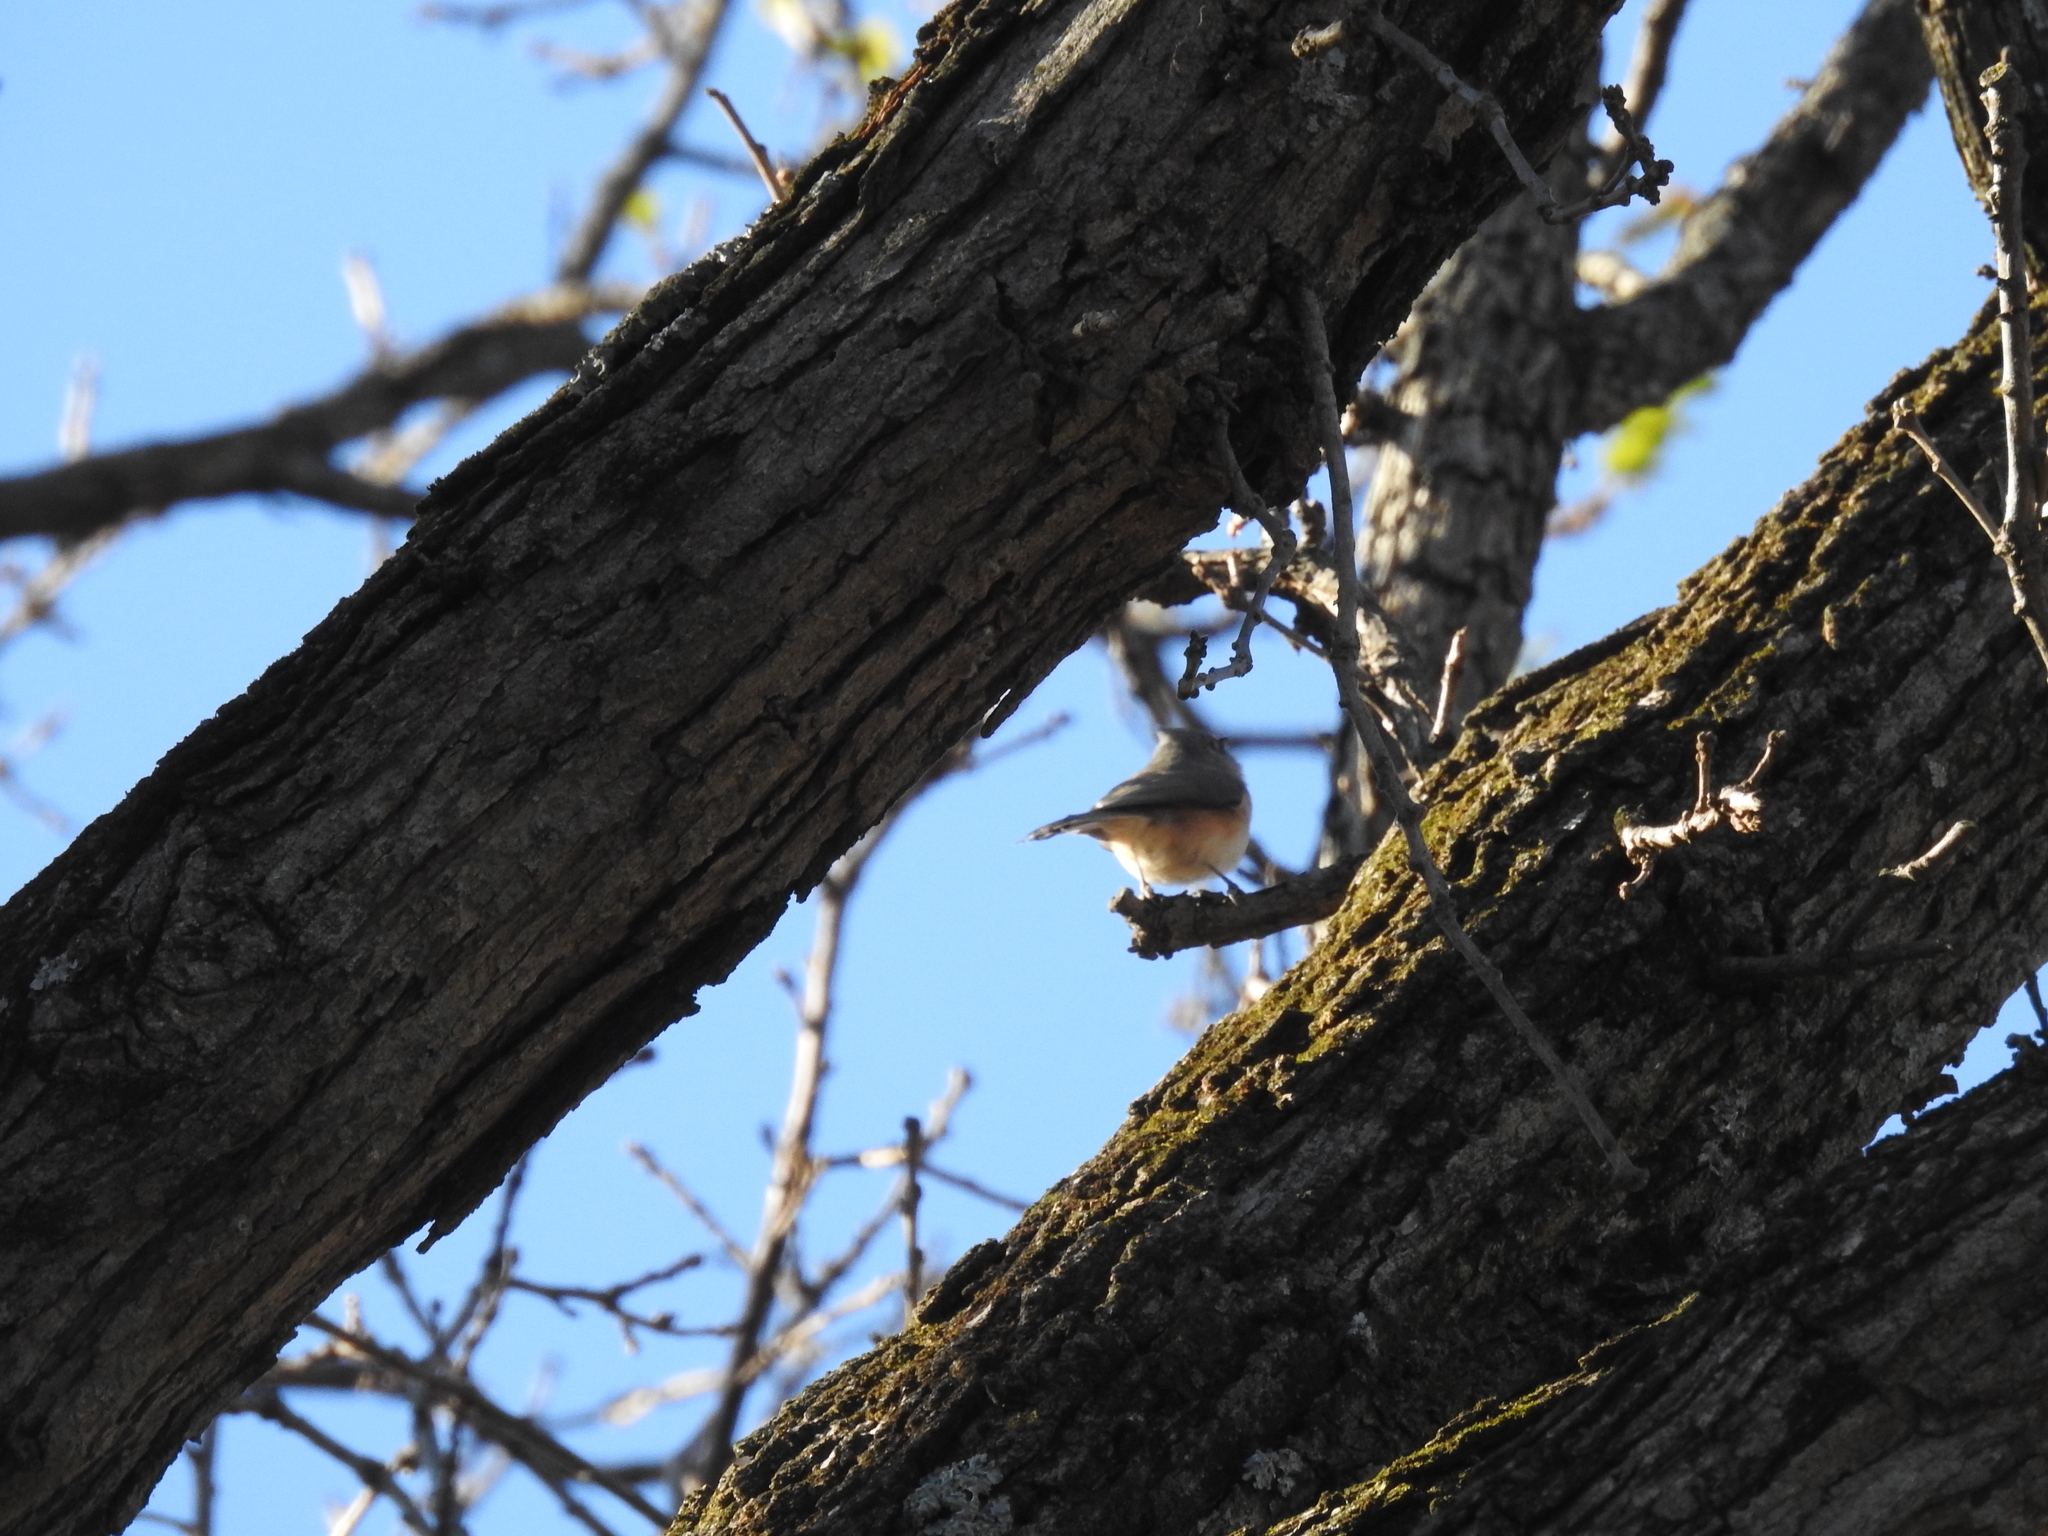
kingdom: Animalia
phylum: Chordata
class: Aves
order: Passeriformes
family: Paridae
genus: Baeolophus
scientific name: Baeolophus bicolor
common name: Tufted titmouse
